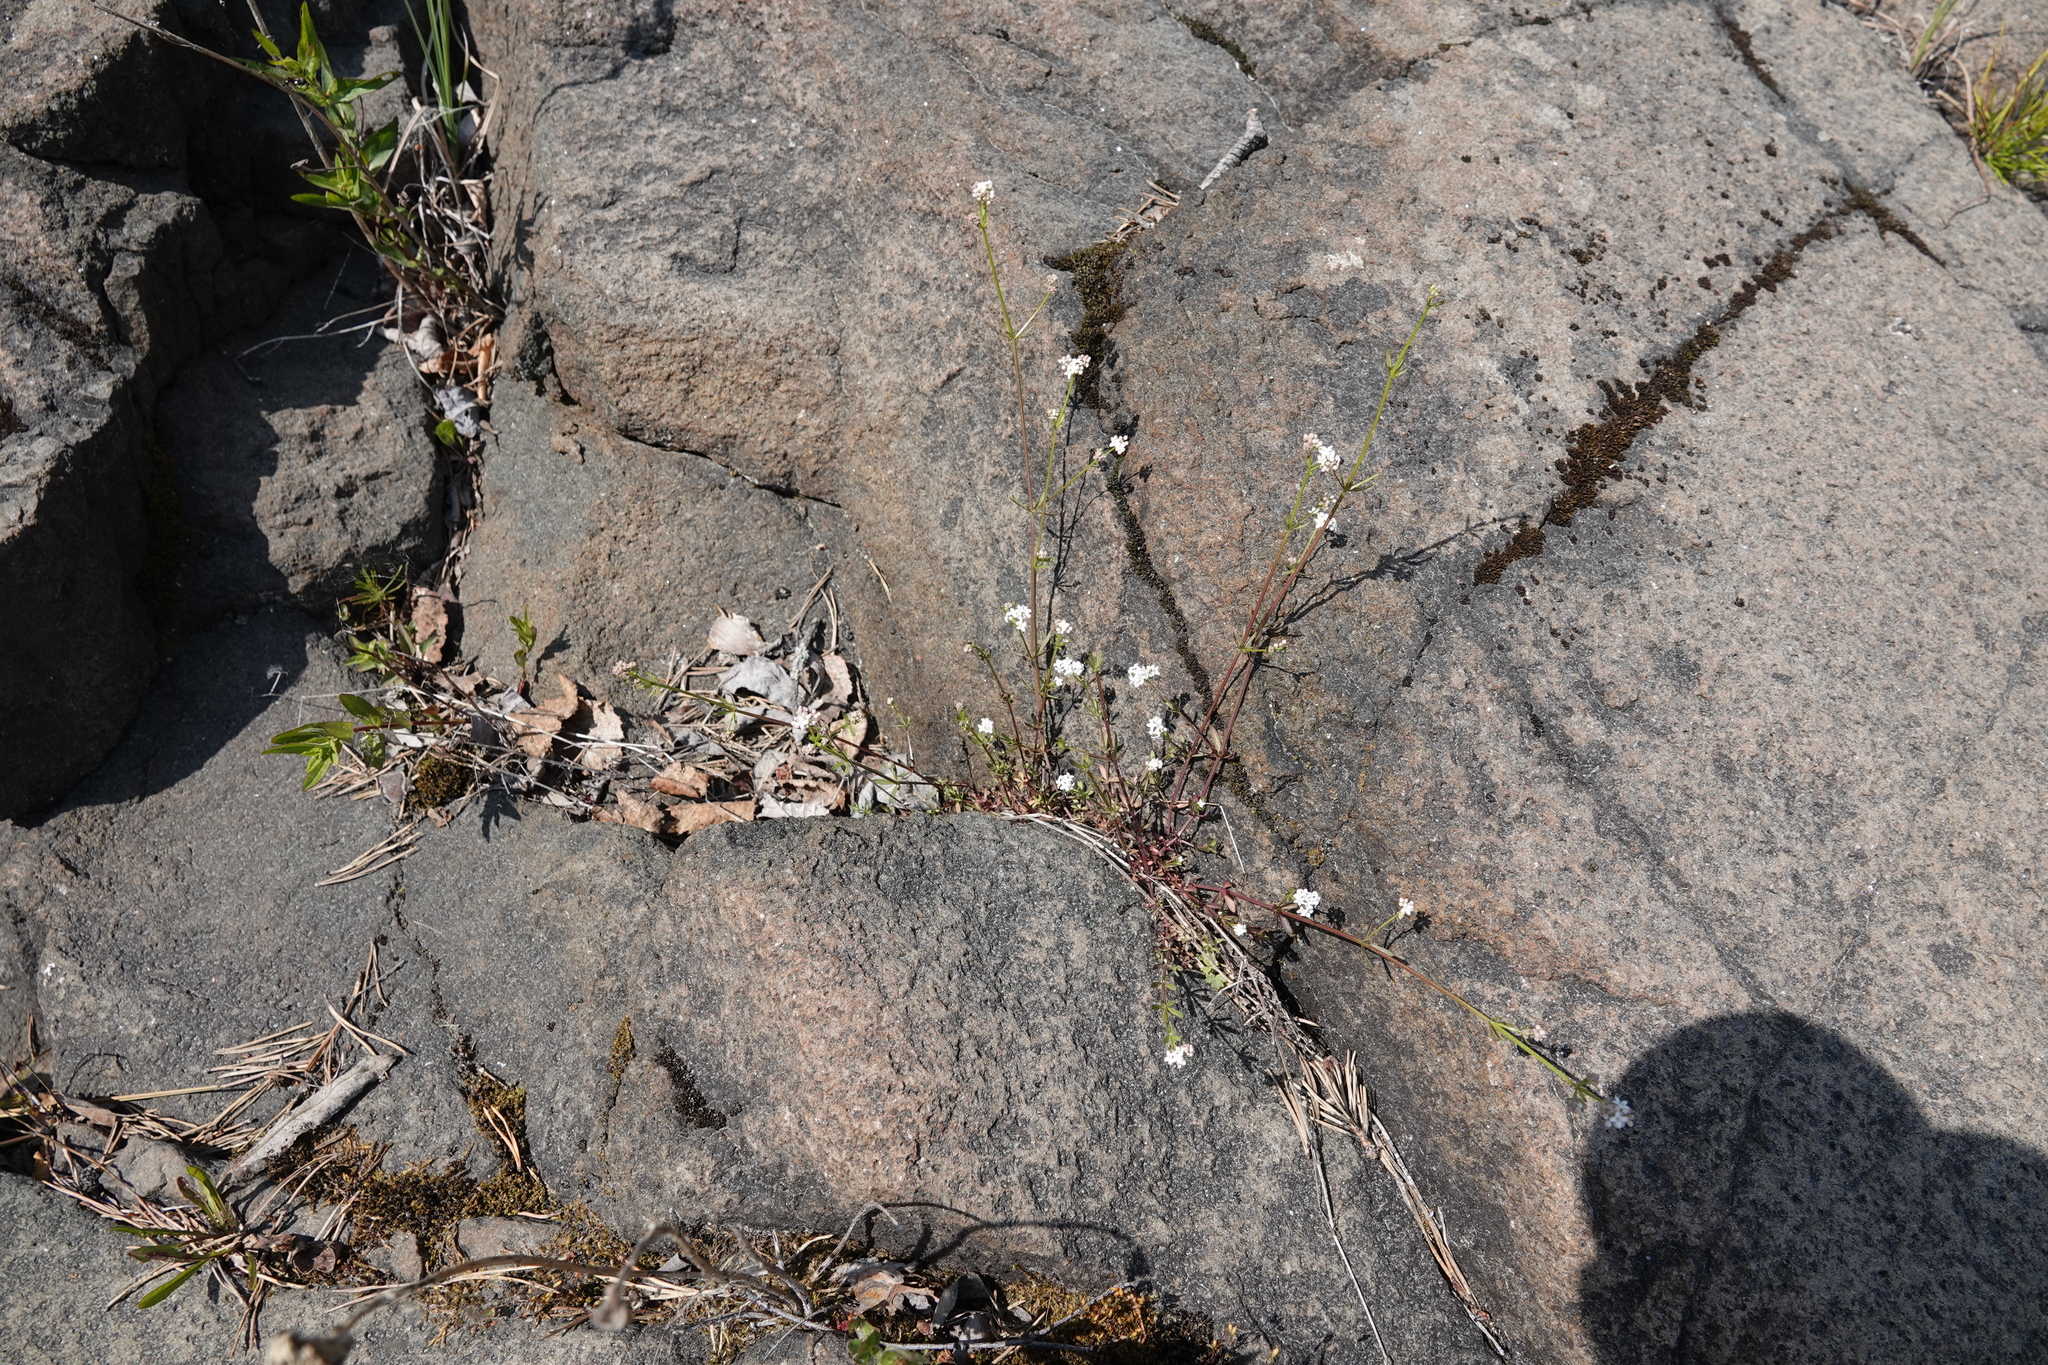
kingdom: Plantae
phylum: Tracheophyta
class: Magnoliopsida
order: Gentianales
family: Rubiaceae
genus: Galium
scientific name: Galium palustre
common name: Common marsh-bedstraw
